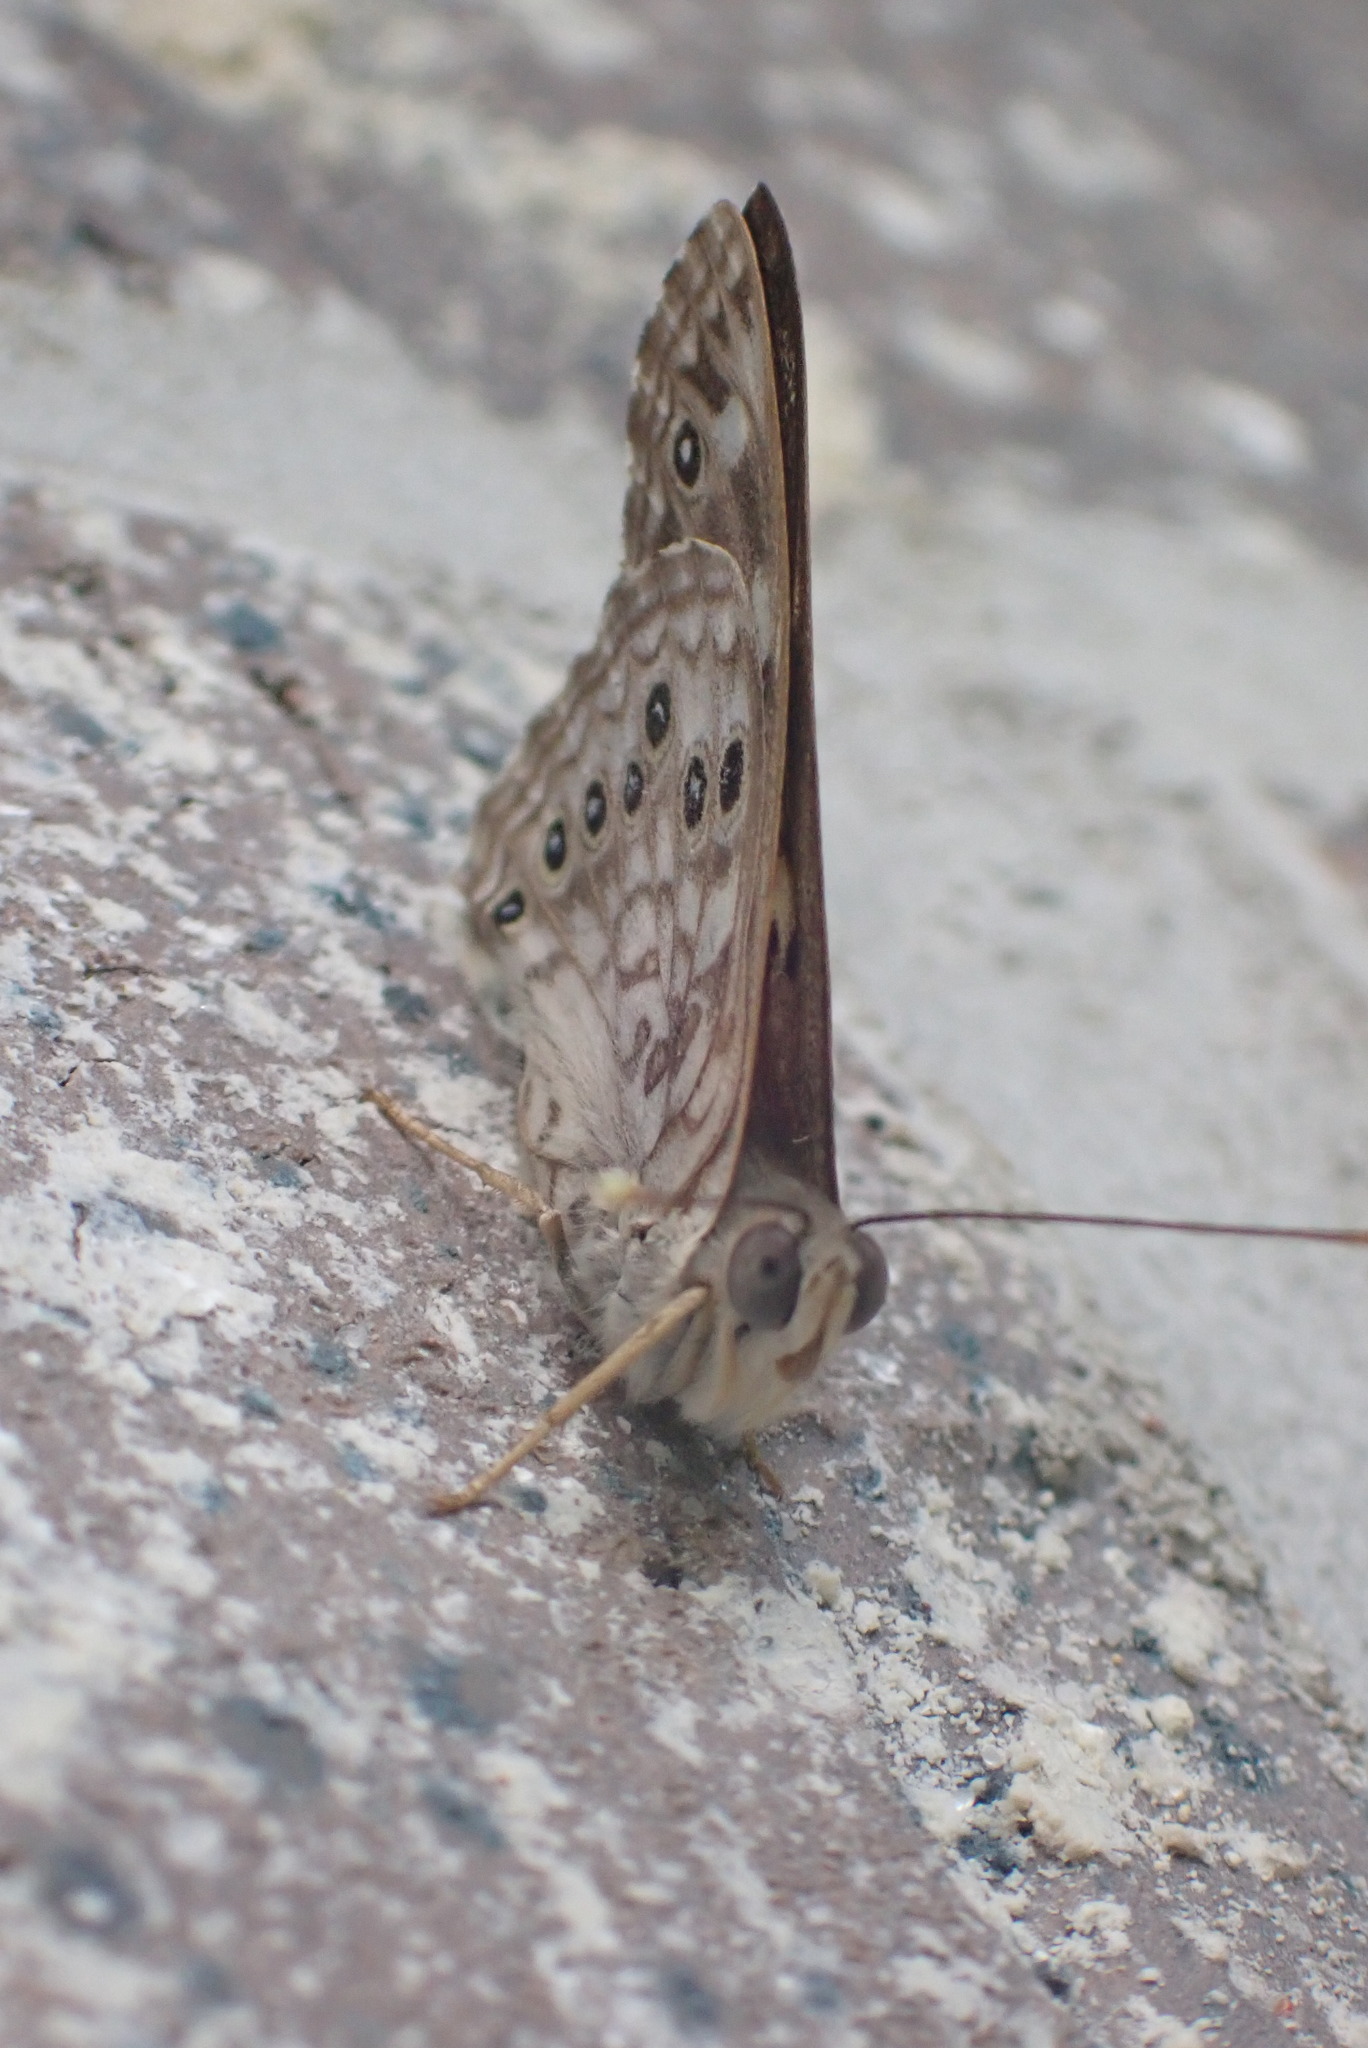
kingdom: Animalia
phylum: Arthropoda
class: Insecta
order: Lepidoptera
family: Nymphalidae
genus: Asterocampa
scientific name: Asterocampa celtis
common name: Hackberry emperor
